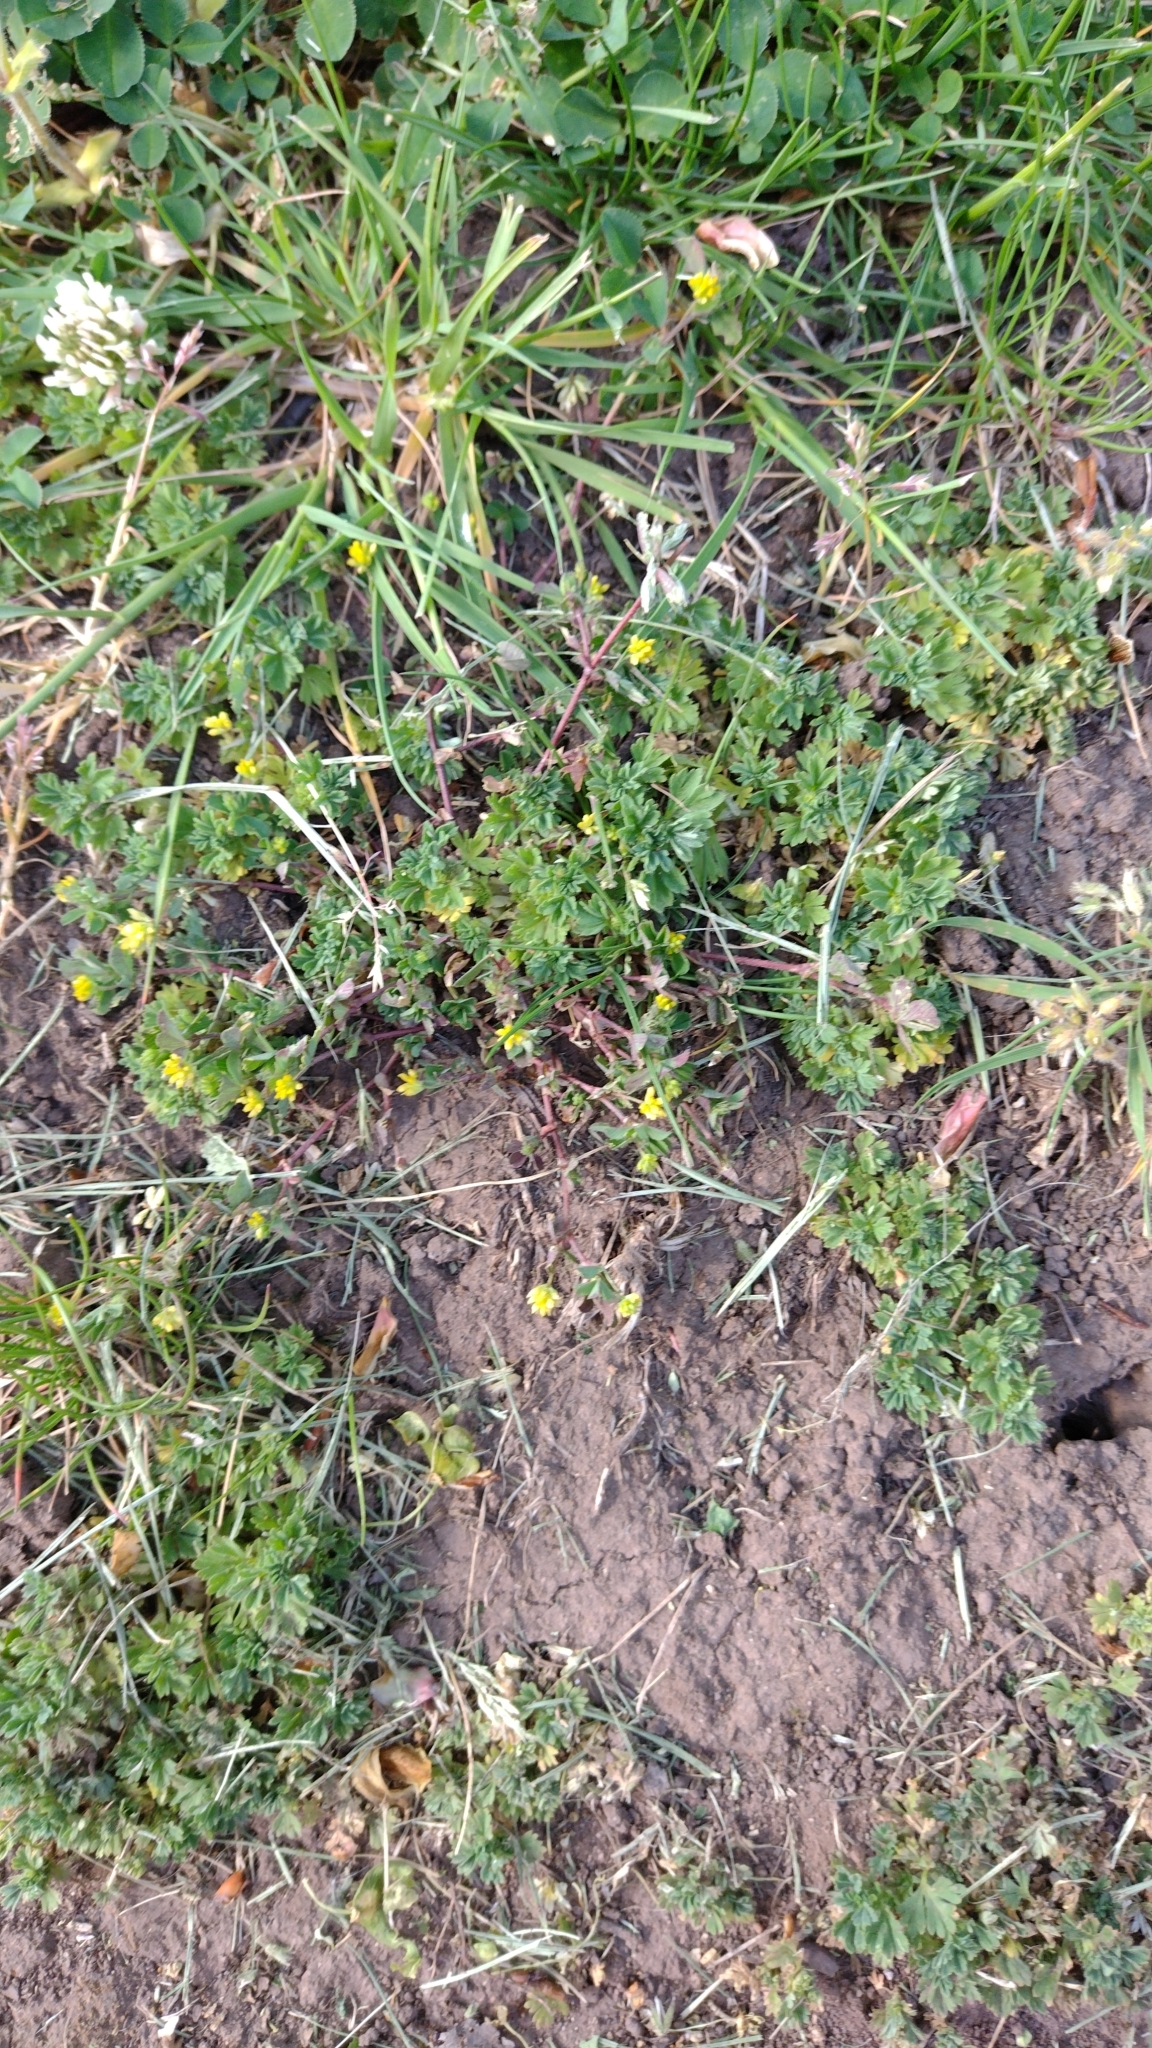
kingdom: Plantae
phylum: Tracheophyta
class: Magnoliopsida
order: Fabales
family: Fabaceae
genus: Trifolium
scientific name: Trifolium dubium
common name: Suckling clover
